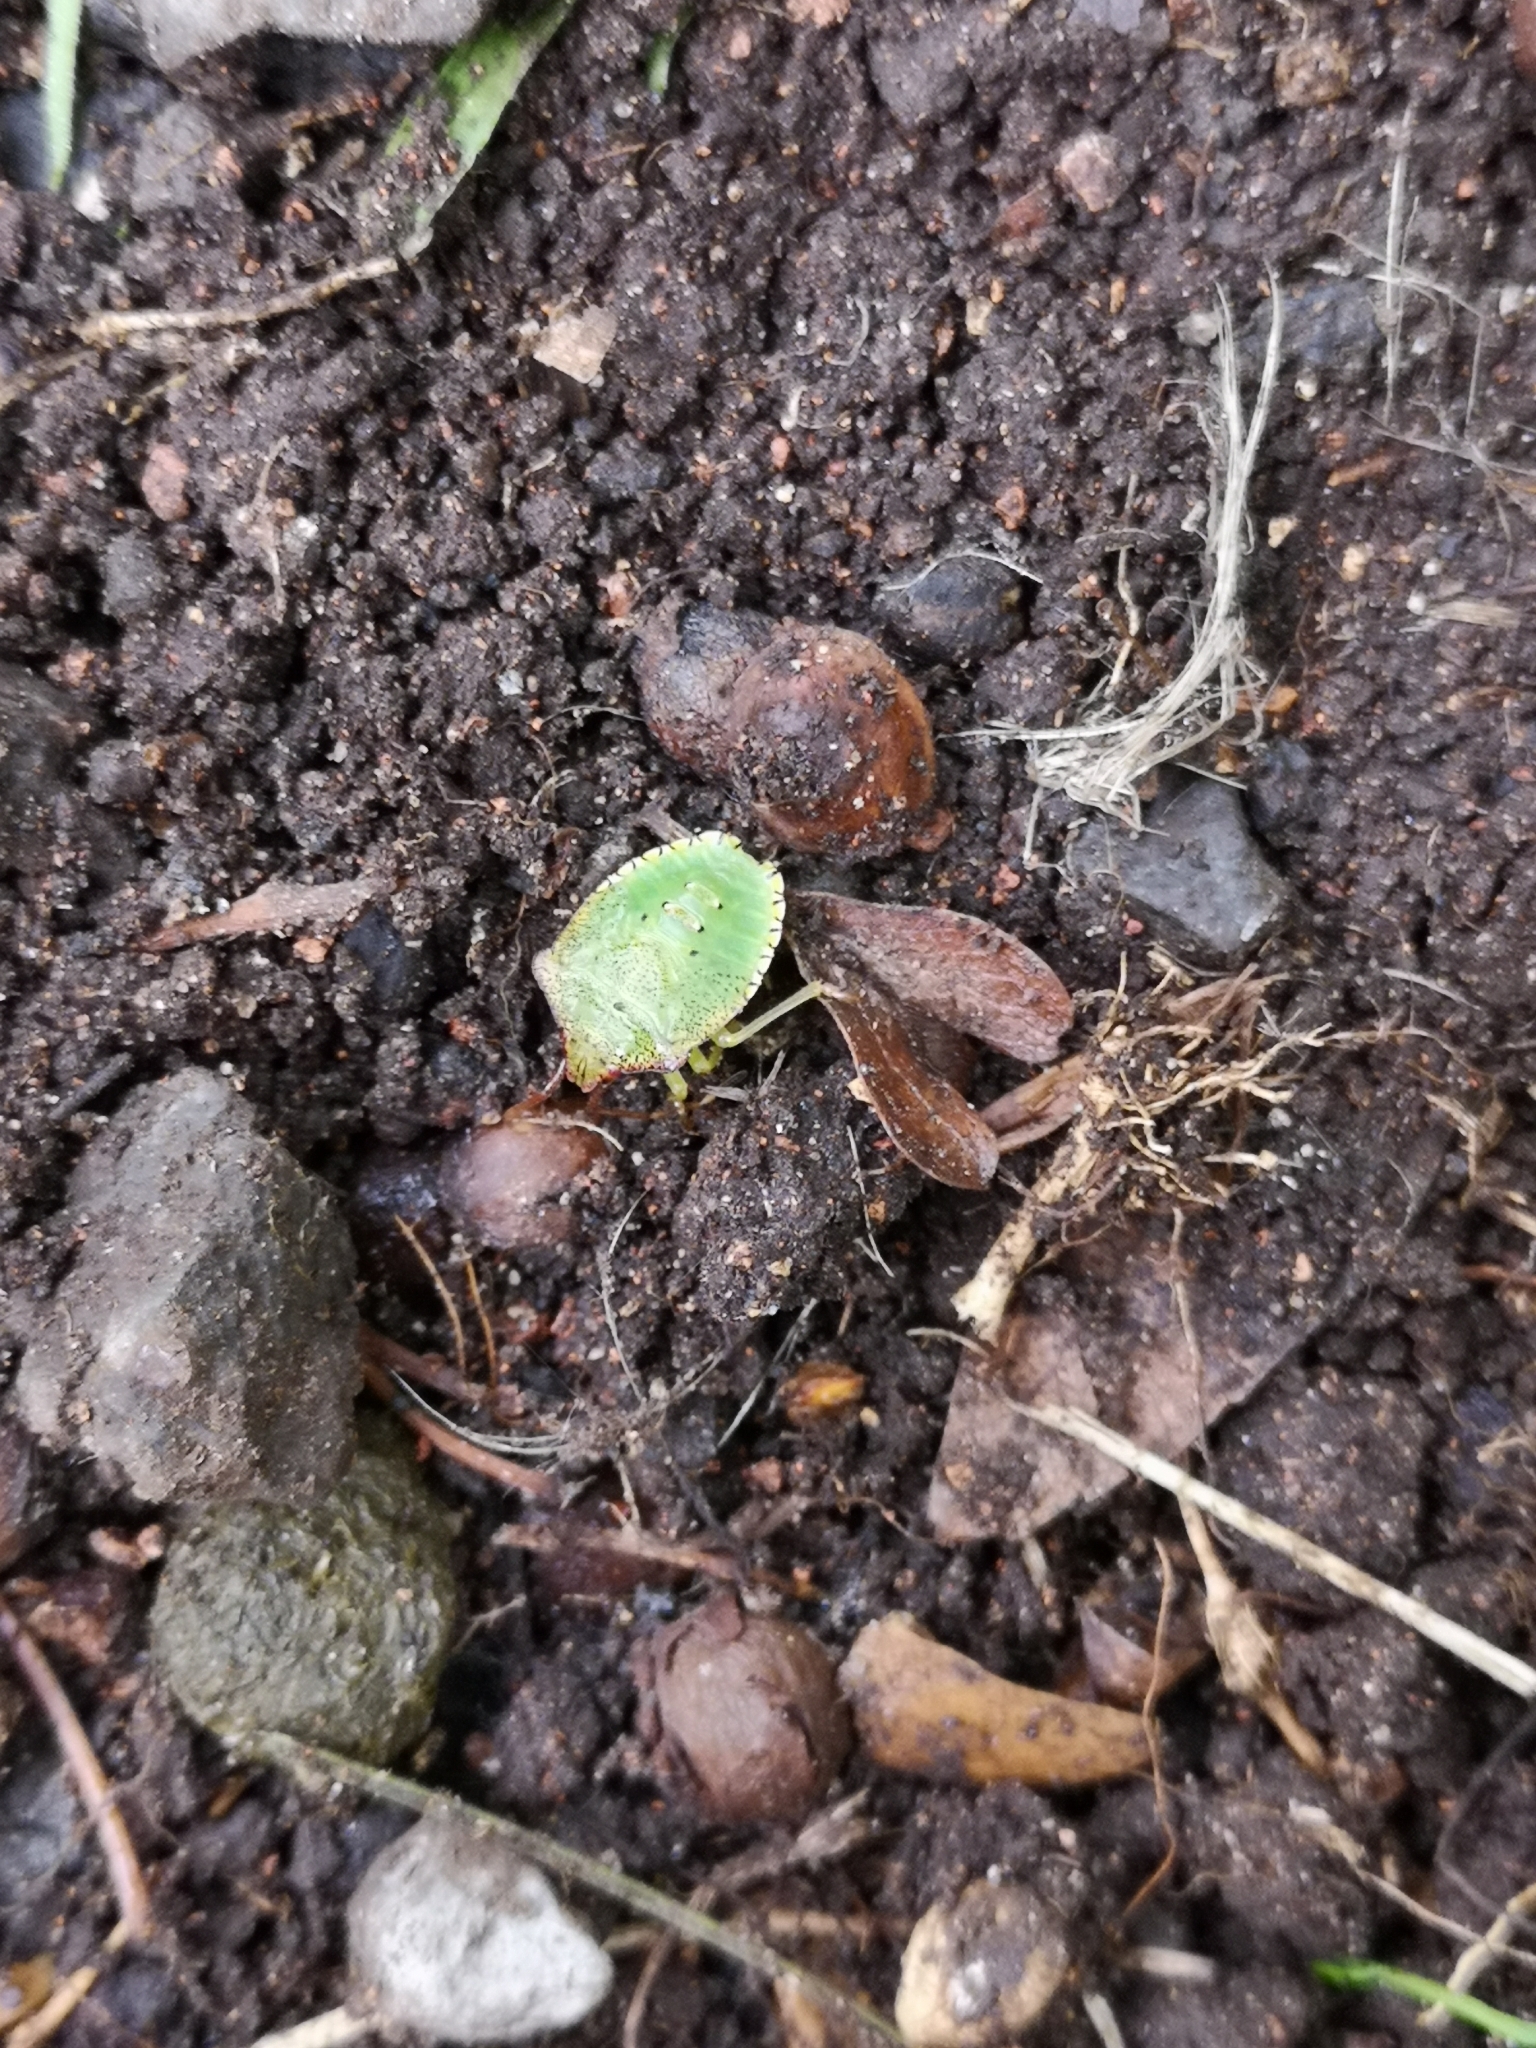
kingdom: Animalia
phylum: Arthropoda
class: Insecta
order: Hemiptera
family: Acanthosomatidae
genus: Acanthosoma
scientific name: Acanthosoma haemorrhoidale
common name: Hawthorn shieldbug
